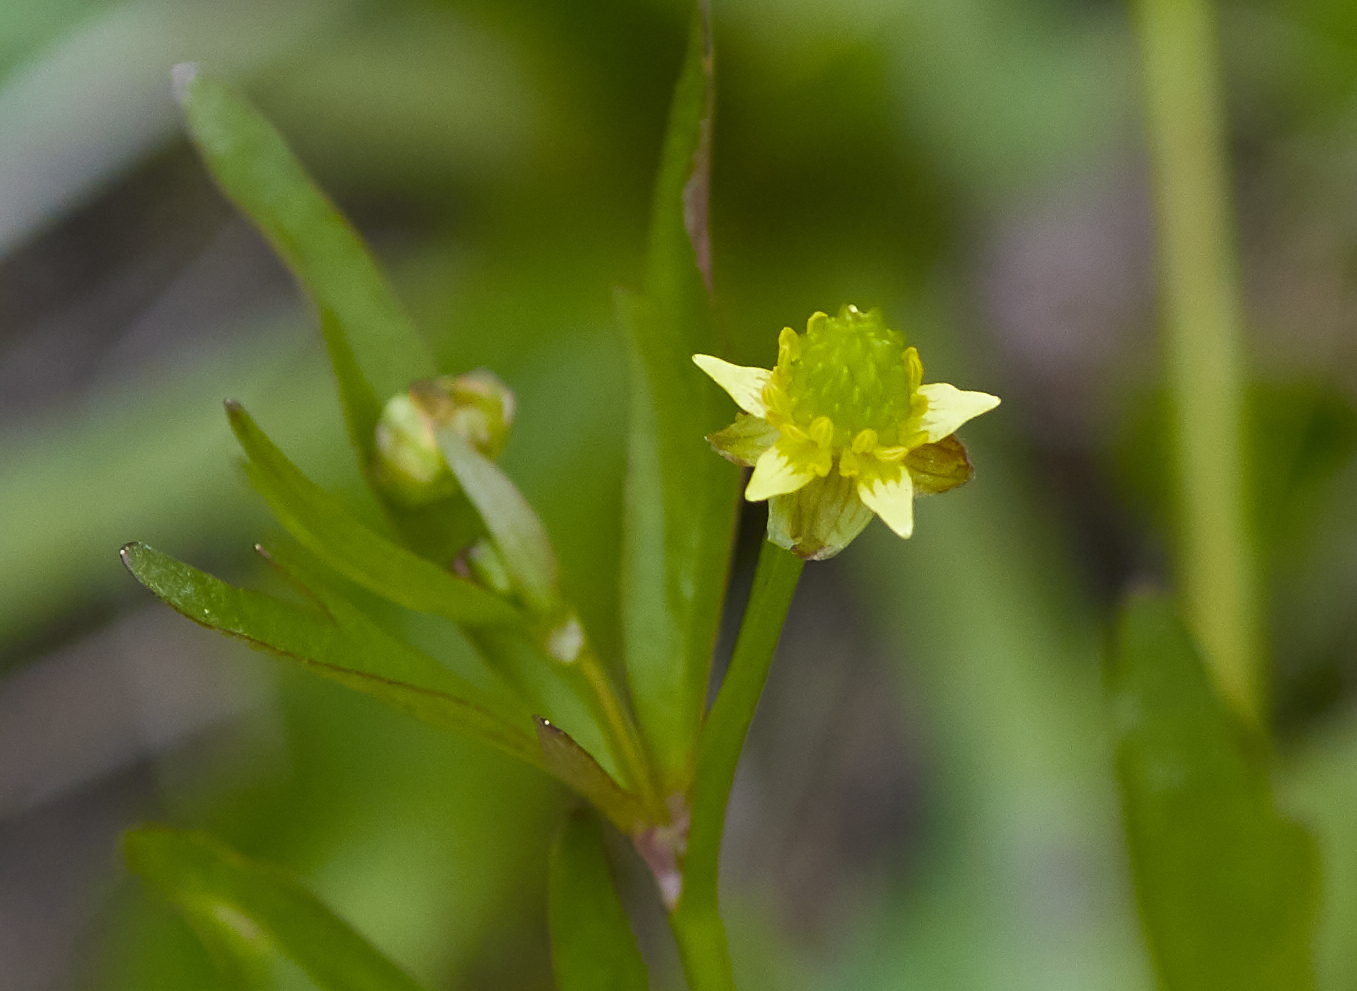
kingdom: Plantae
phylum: Tracheophyta
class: Magnoliopsida
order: Ranunculales
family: Ranunculaceae
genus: Ranunculus
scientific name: Ranunculus abortivus
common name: Early wood buttercup
